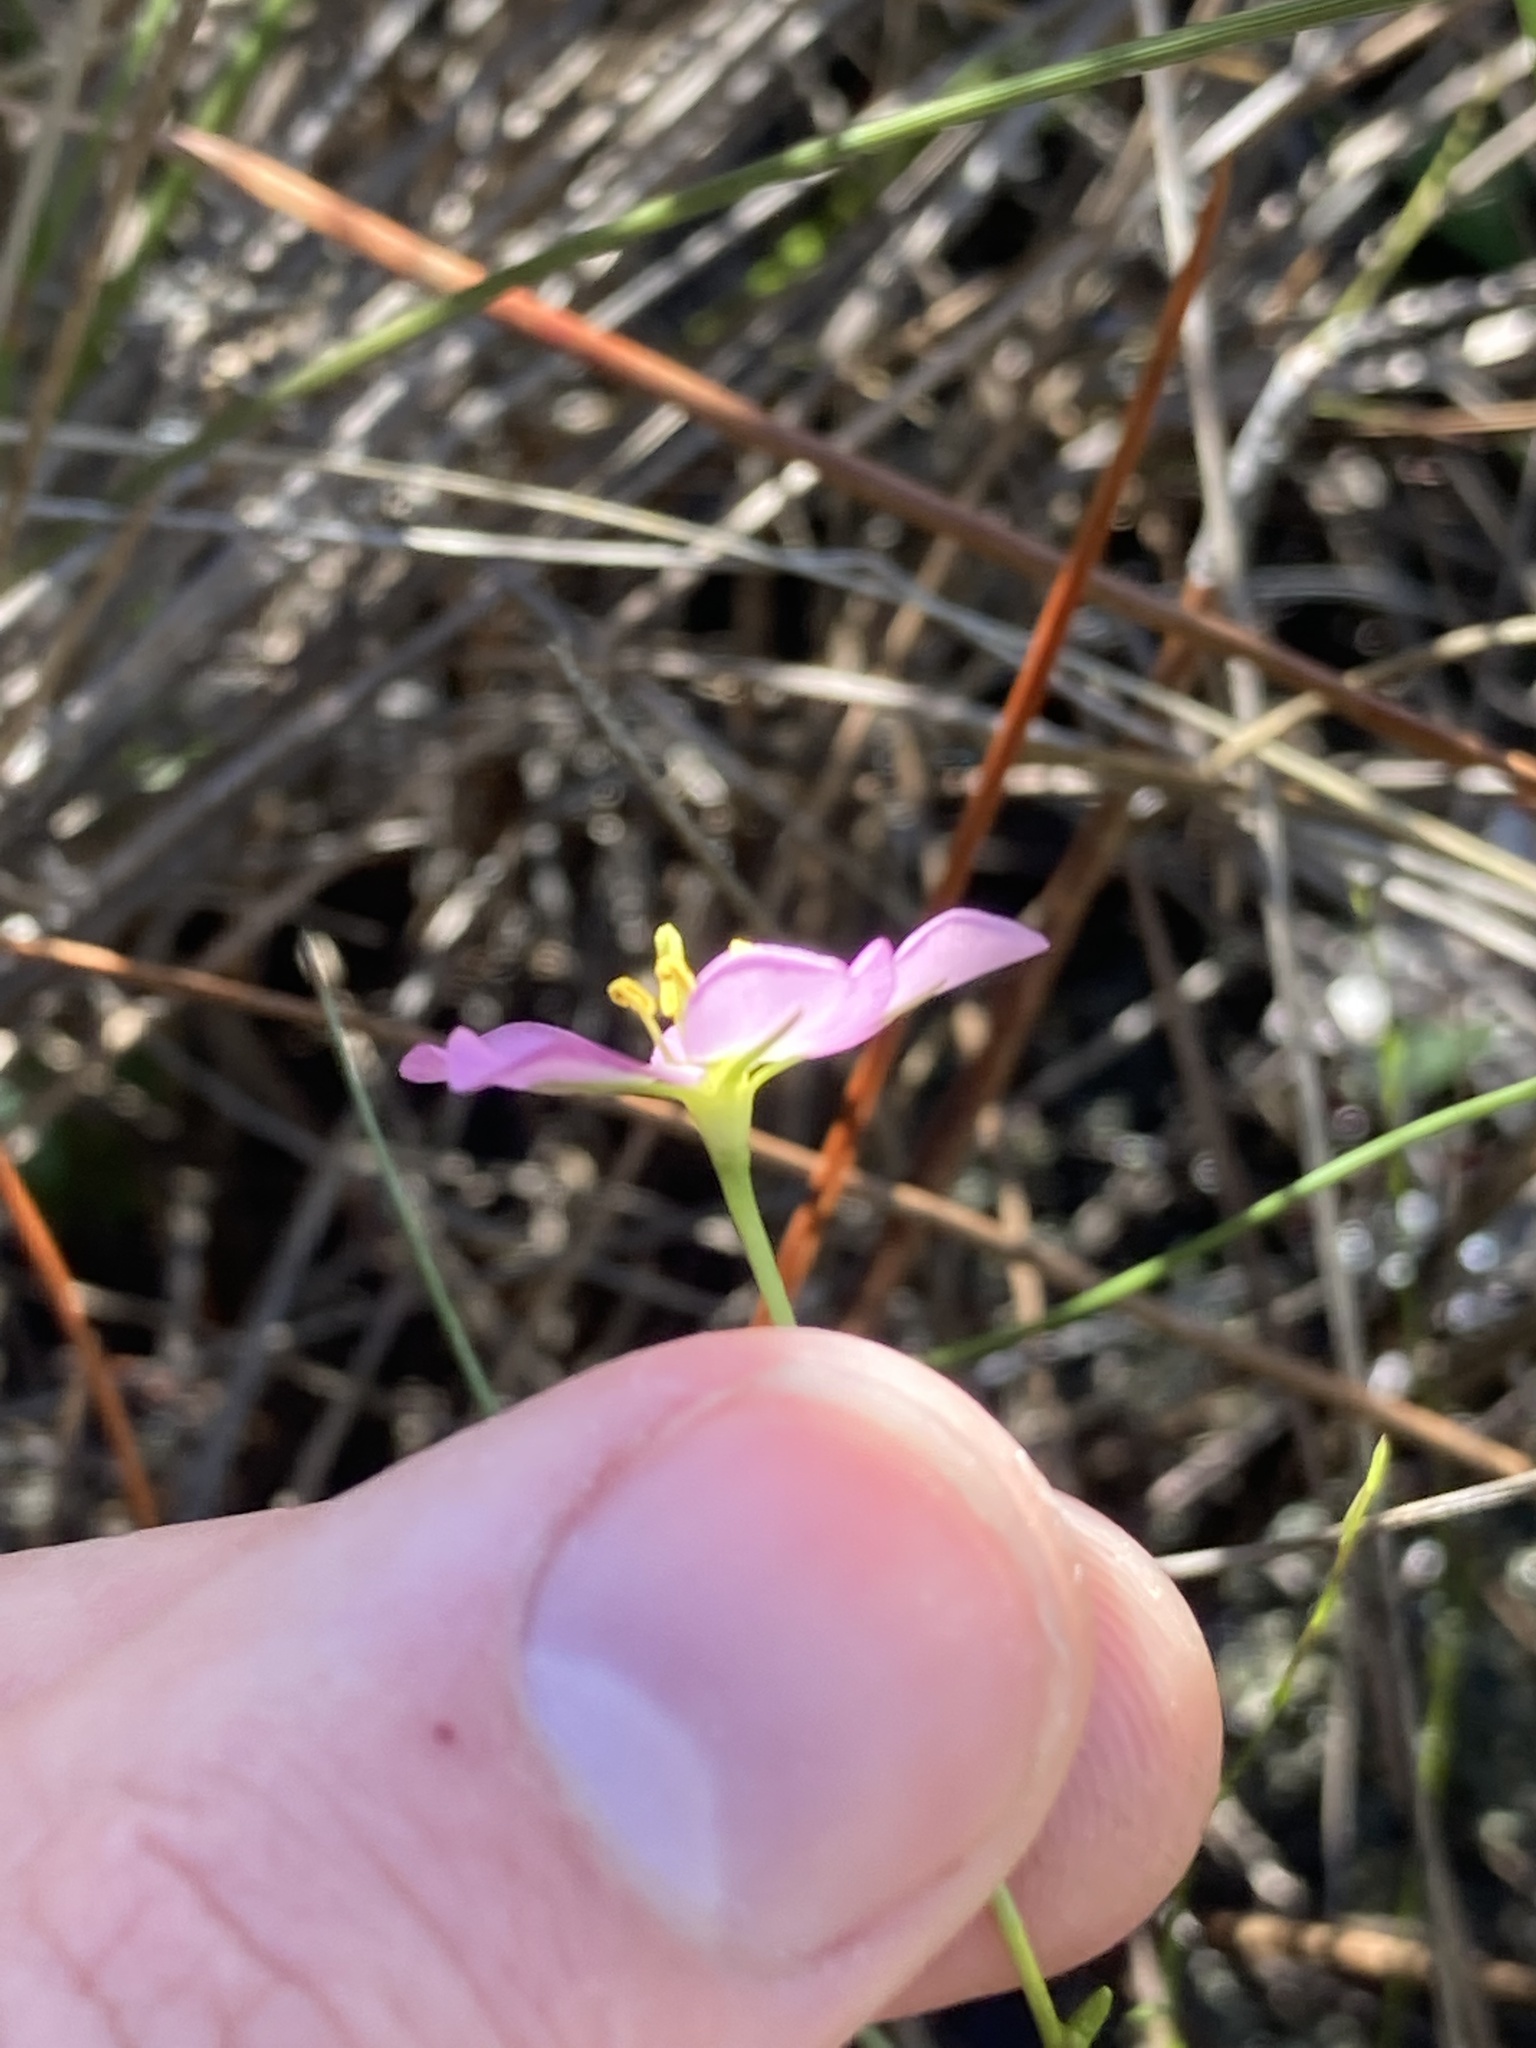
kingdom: Plantae
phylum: Tracheophyta
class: Magnoliopsida
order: Gentianales
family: Gentianaceae
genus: Sabatia
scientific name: Sabatia stellaris
